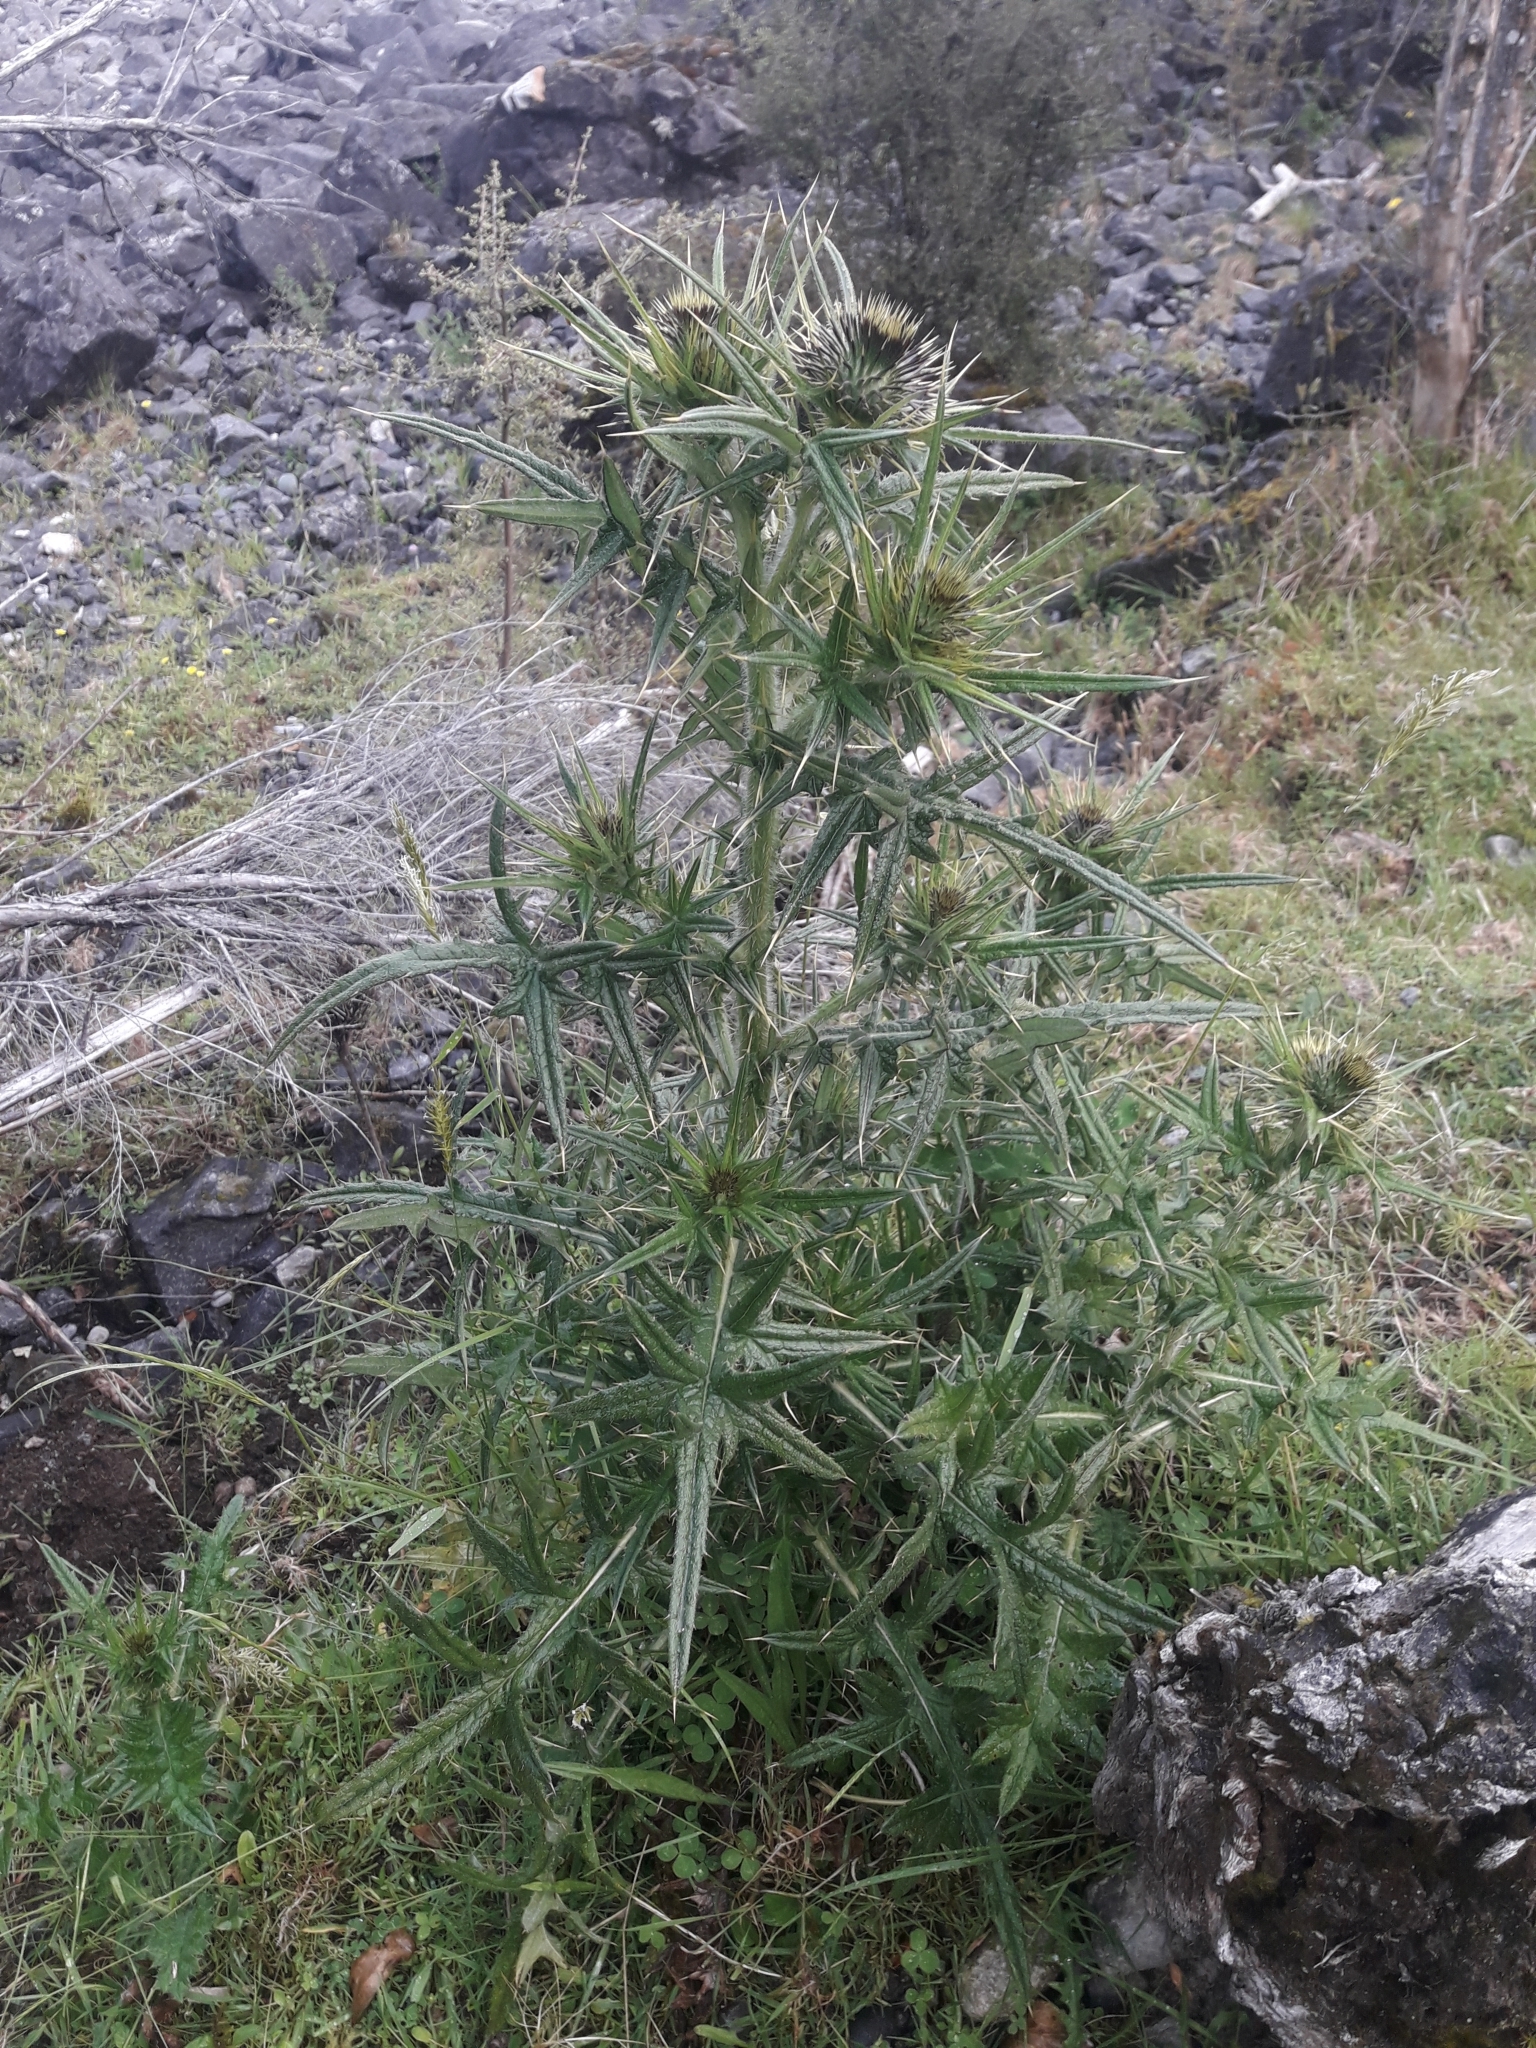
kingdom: Plantae
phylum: Tracheophyta
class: Magnoliopsida
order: Asterales
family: Asteraceae
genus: Cirsium
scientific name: Cirsium vulgare
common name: Bull thistle
